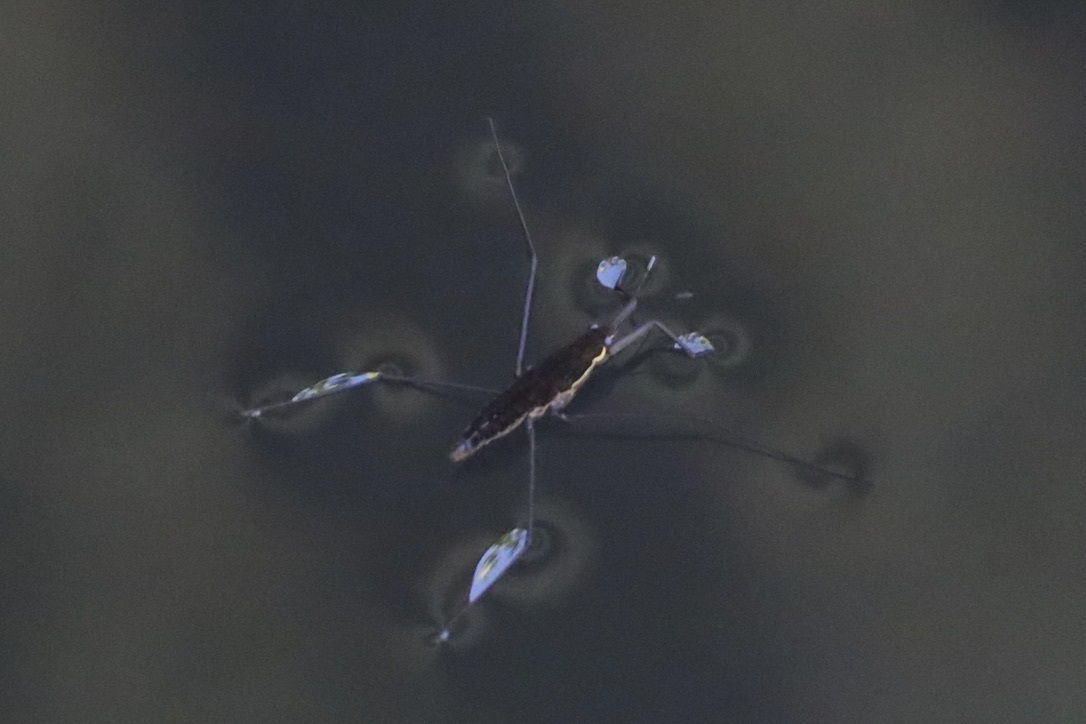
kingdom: Animalia
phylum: Arthropoda
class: Insecta
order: Hemiptera
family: Gerridae
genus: Aquarius
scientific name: Aquarius remigis
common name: Common water strider
